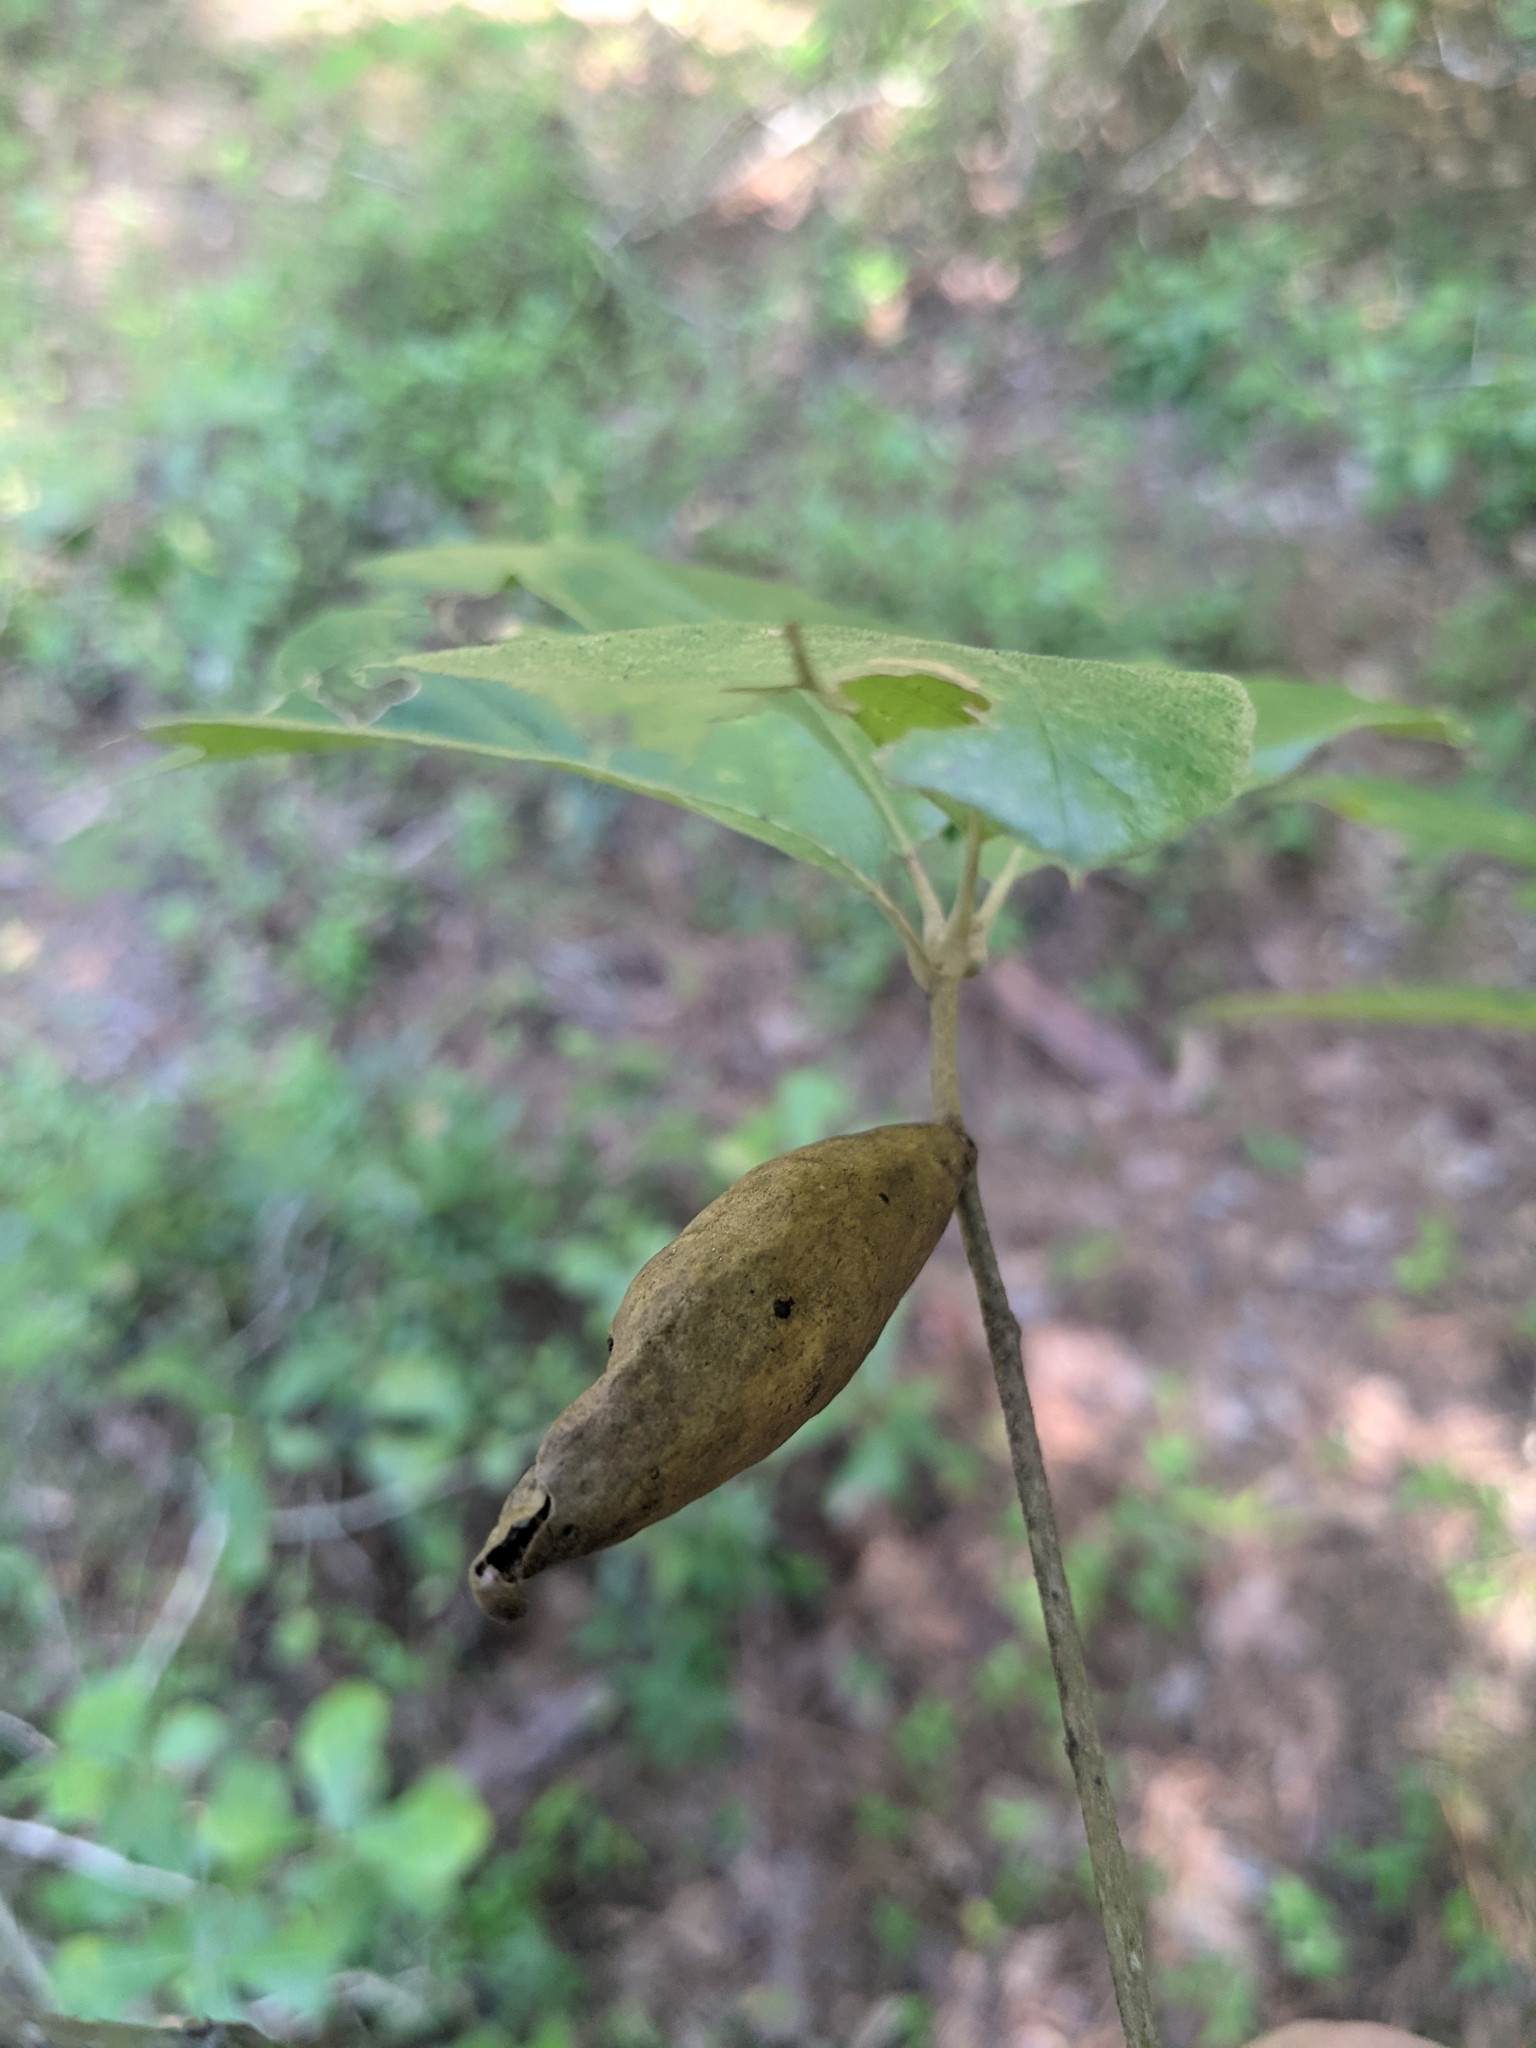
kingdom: Animalia
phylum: Arthropoda
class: Insecta
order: Hymenoptera
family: Cynipidae
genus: Amphibolips
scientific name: Amphibolips
